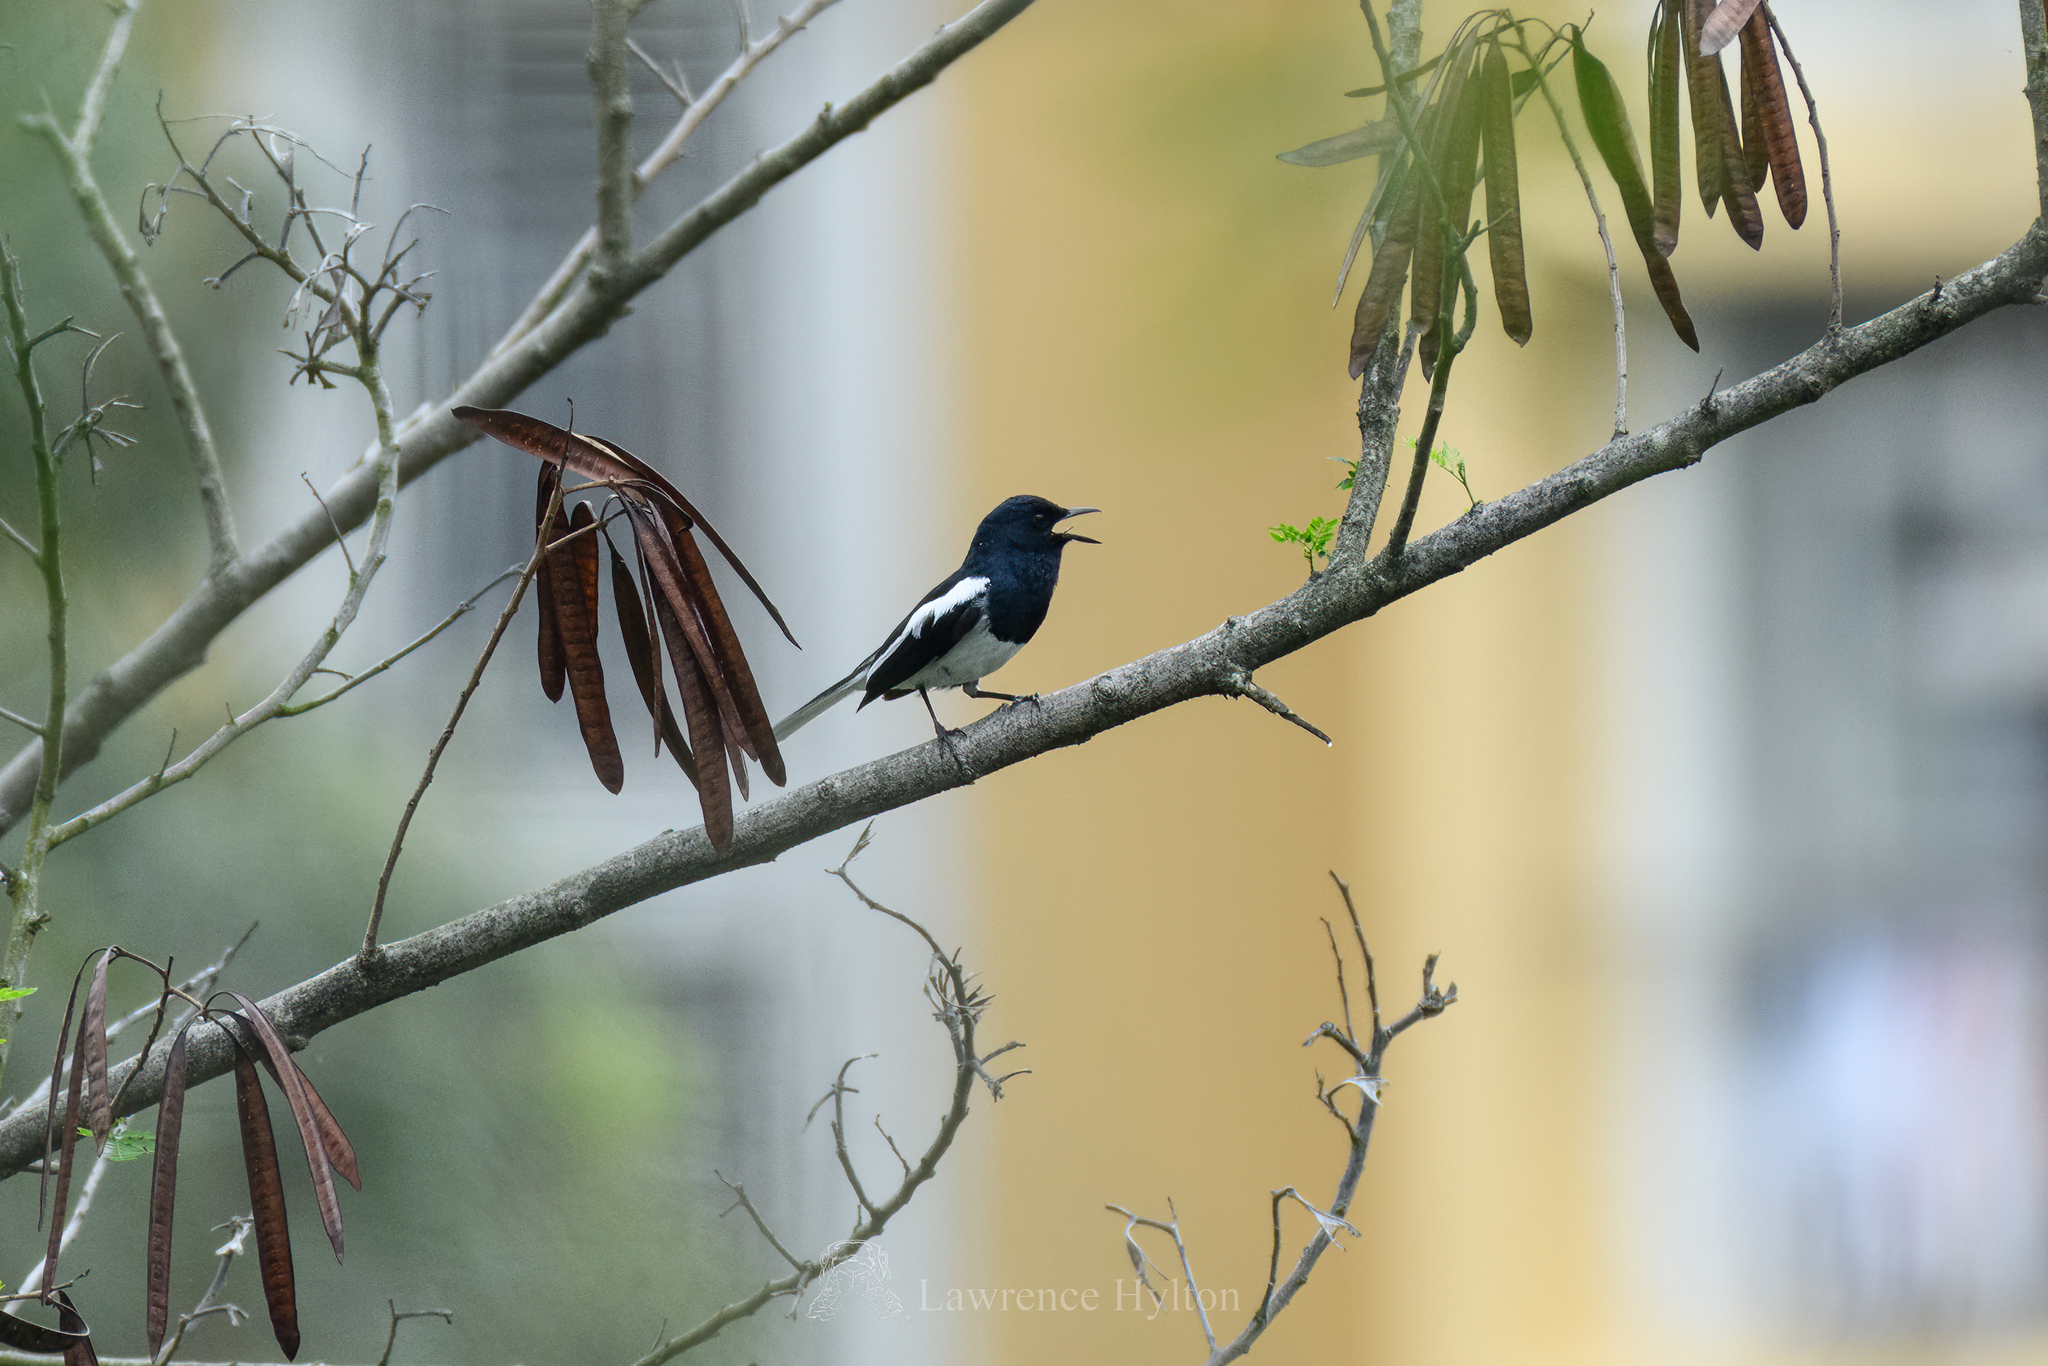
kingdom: Animalia
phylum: Chordata
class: Aves
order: Passeriformes
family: Muscicapidae
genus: Copsychus
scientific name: Copsychus saularis
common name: Oriental magpie-robin
